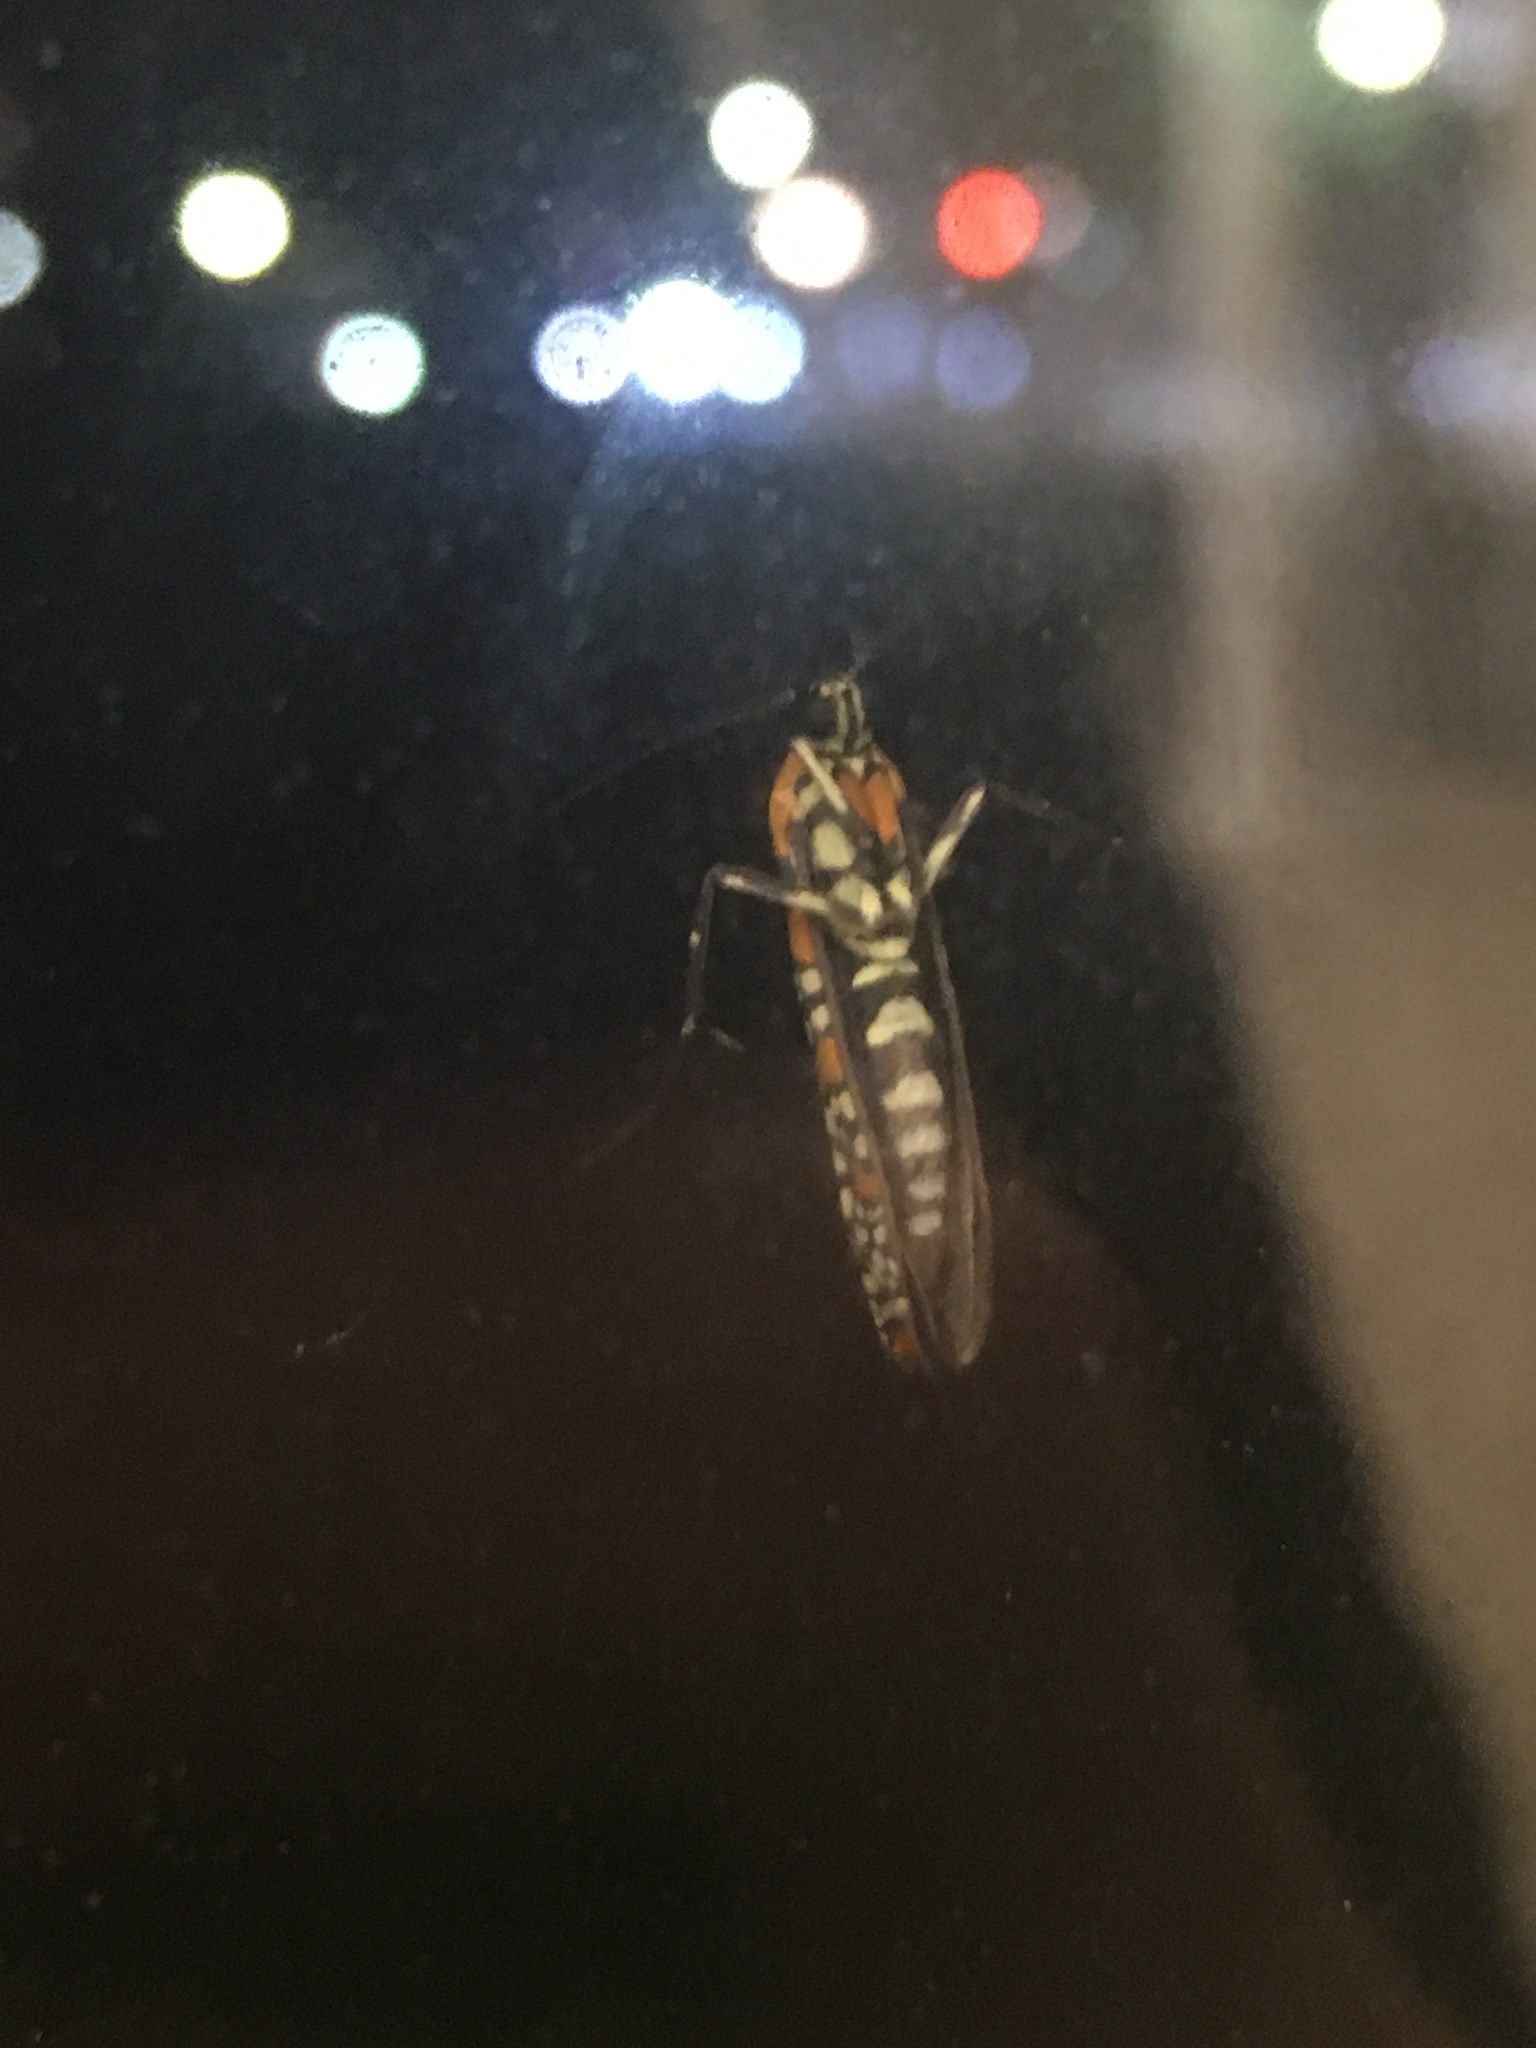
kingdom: Animalia
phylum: Arthropoda
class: Insecta
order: Lepidoptera
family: Attevidae
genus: Atteva
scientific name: Atteva punctella
